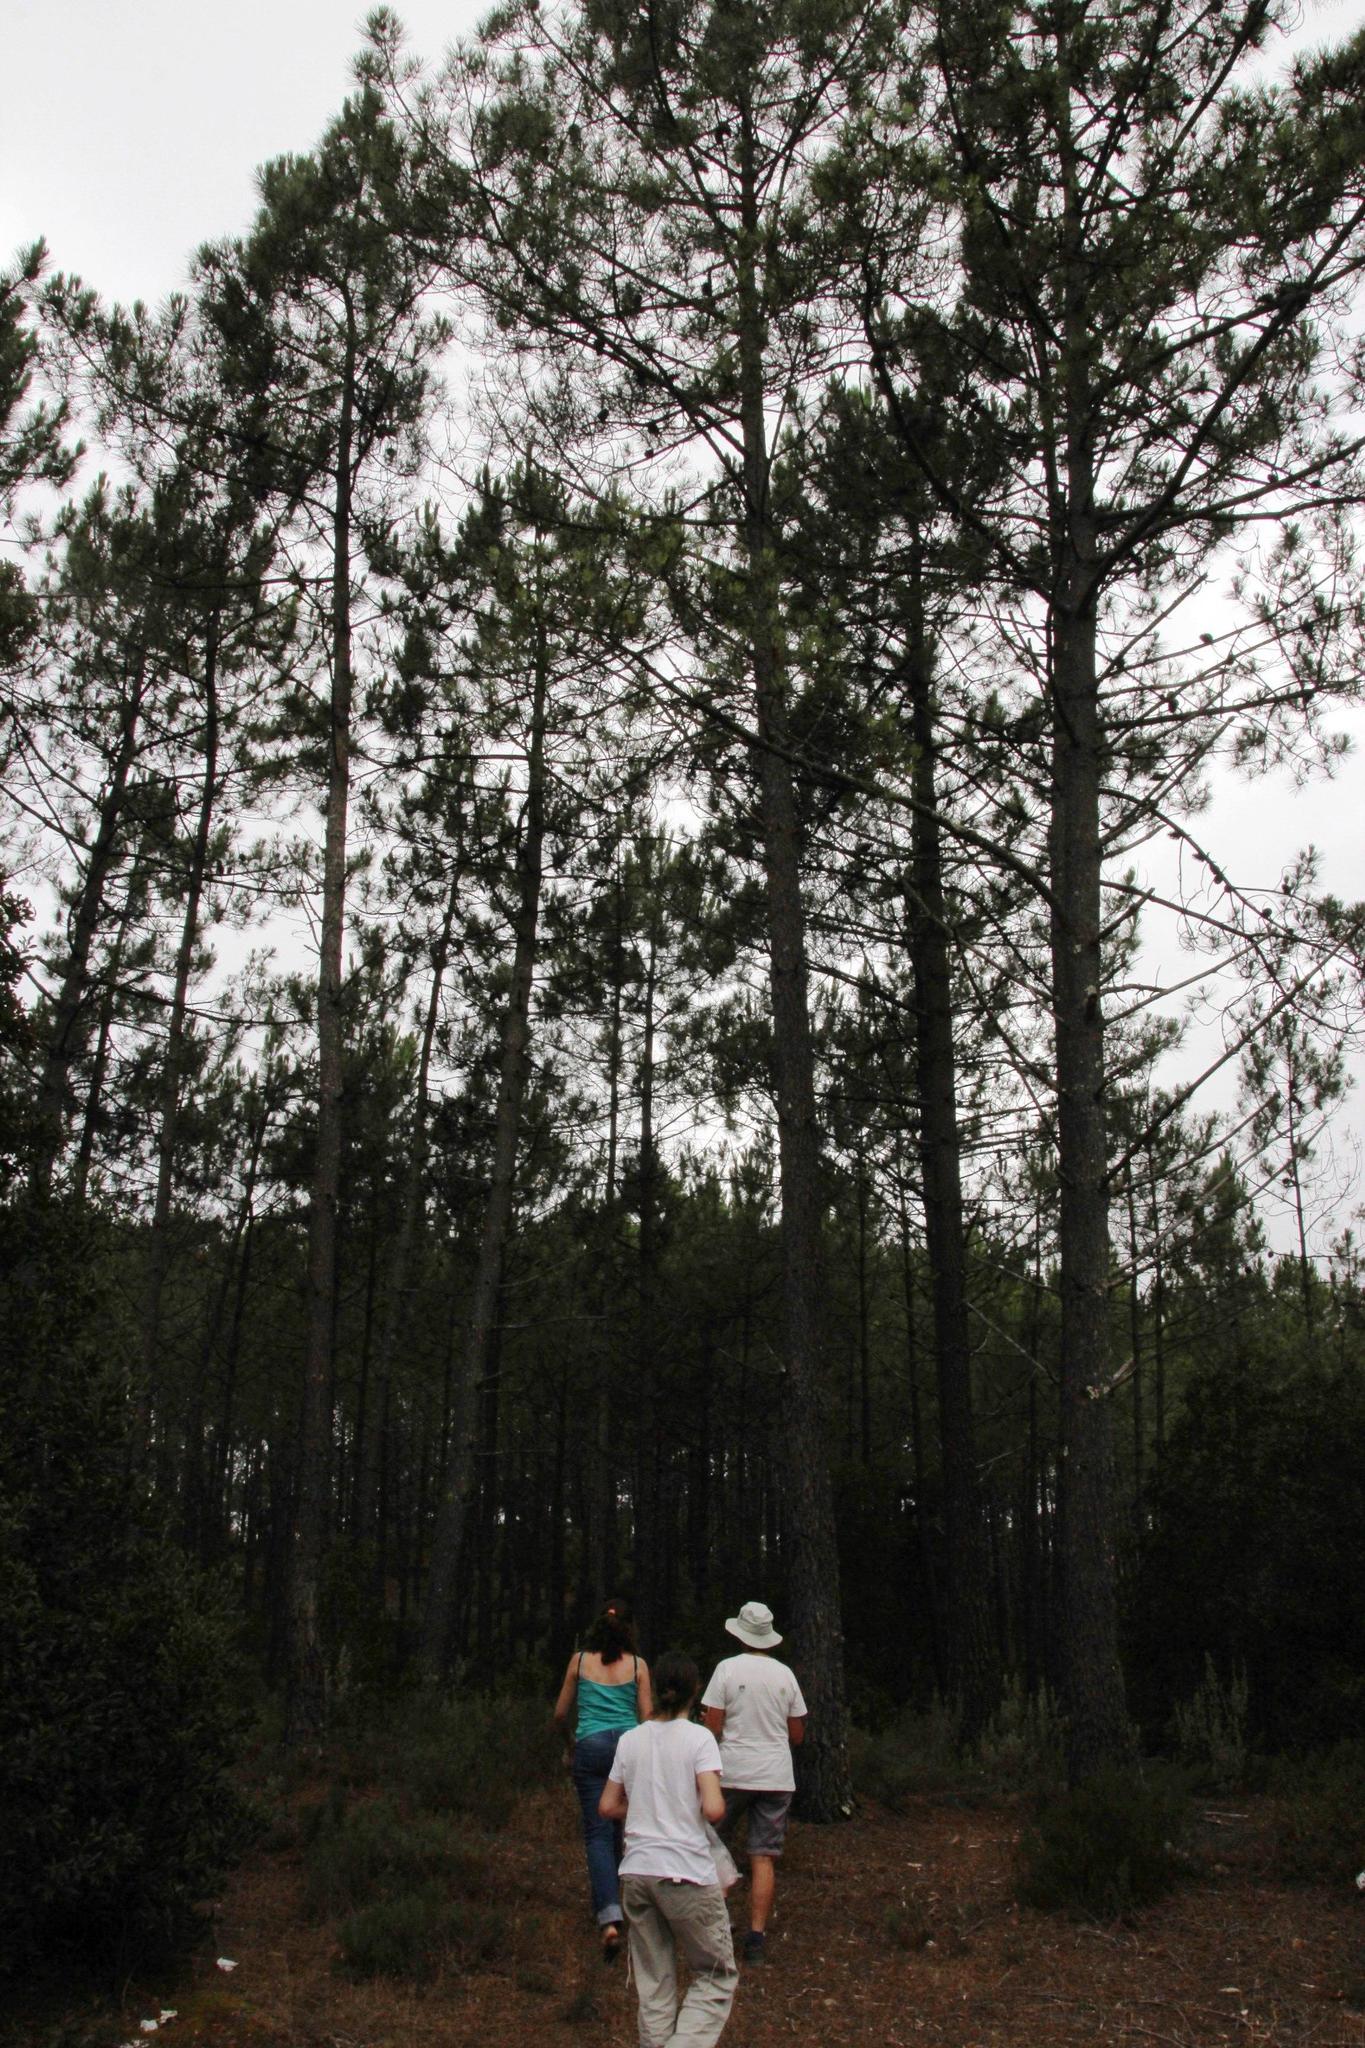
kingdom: Plantae
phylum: Tracheophyta
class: Pinopsida
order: Pinales
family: Pinaceae
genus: Pinus
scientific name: Pinus pinaster
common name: Maritime pine
